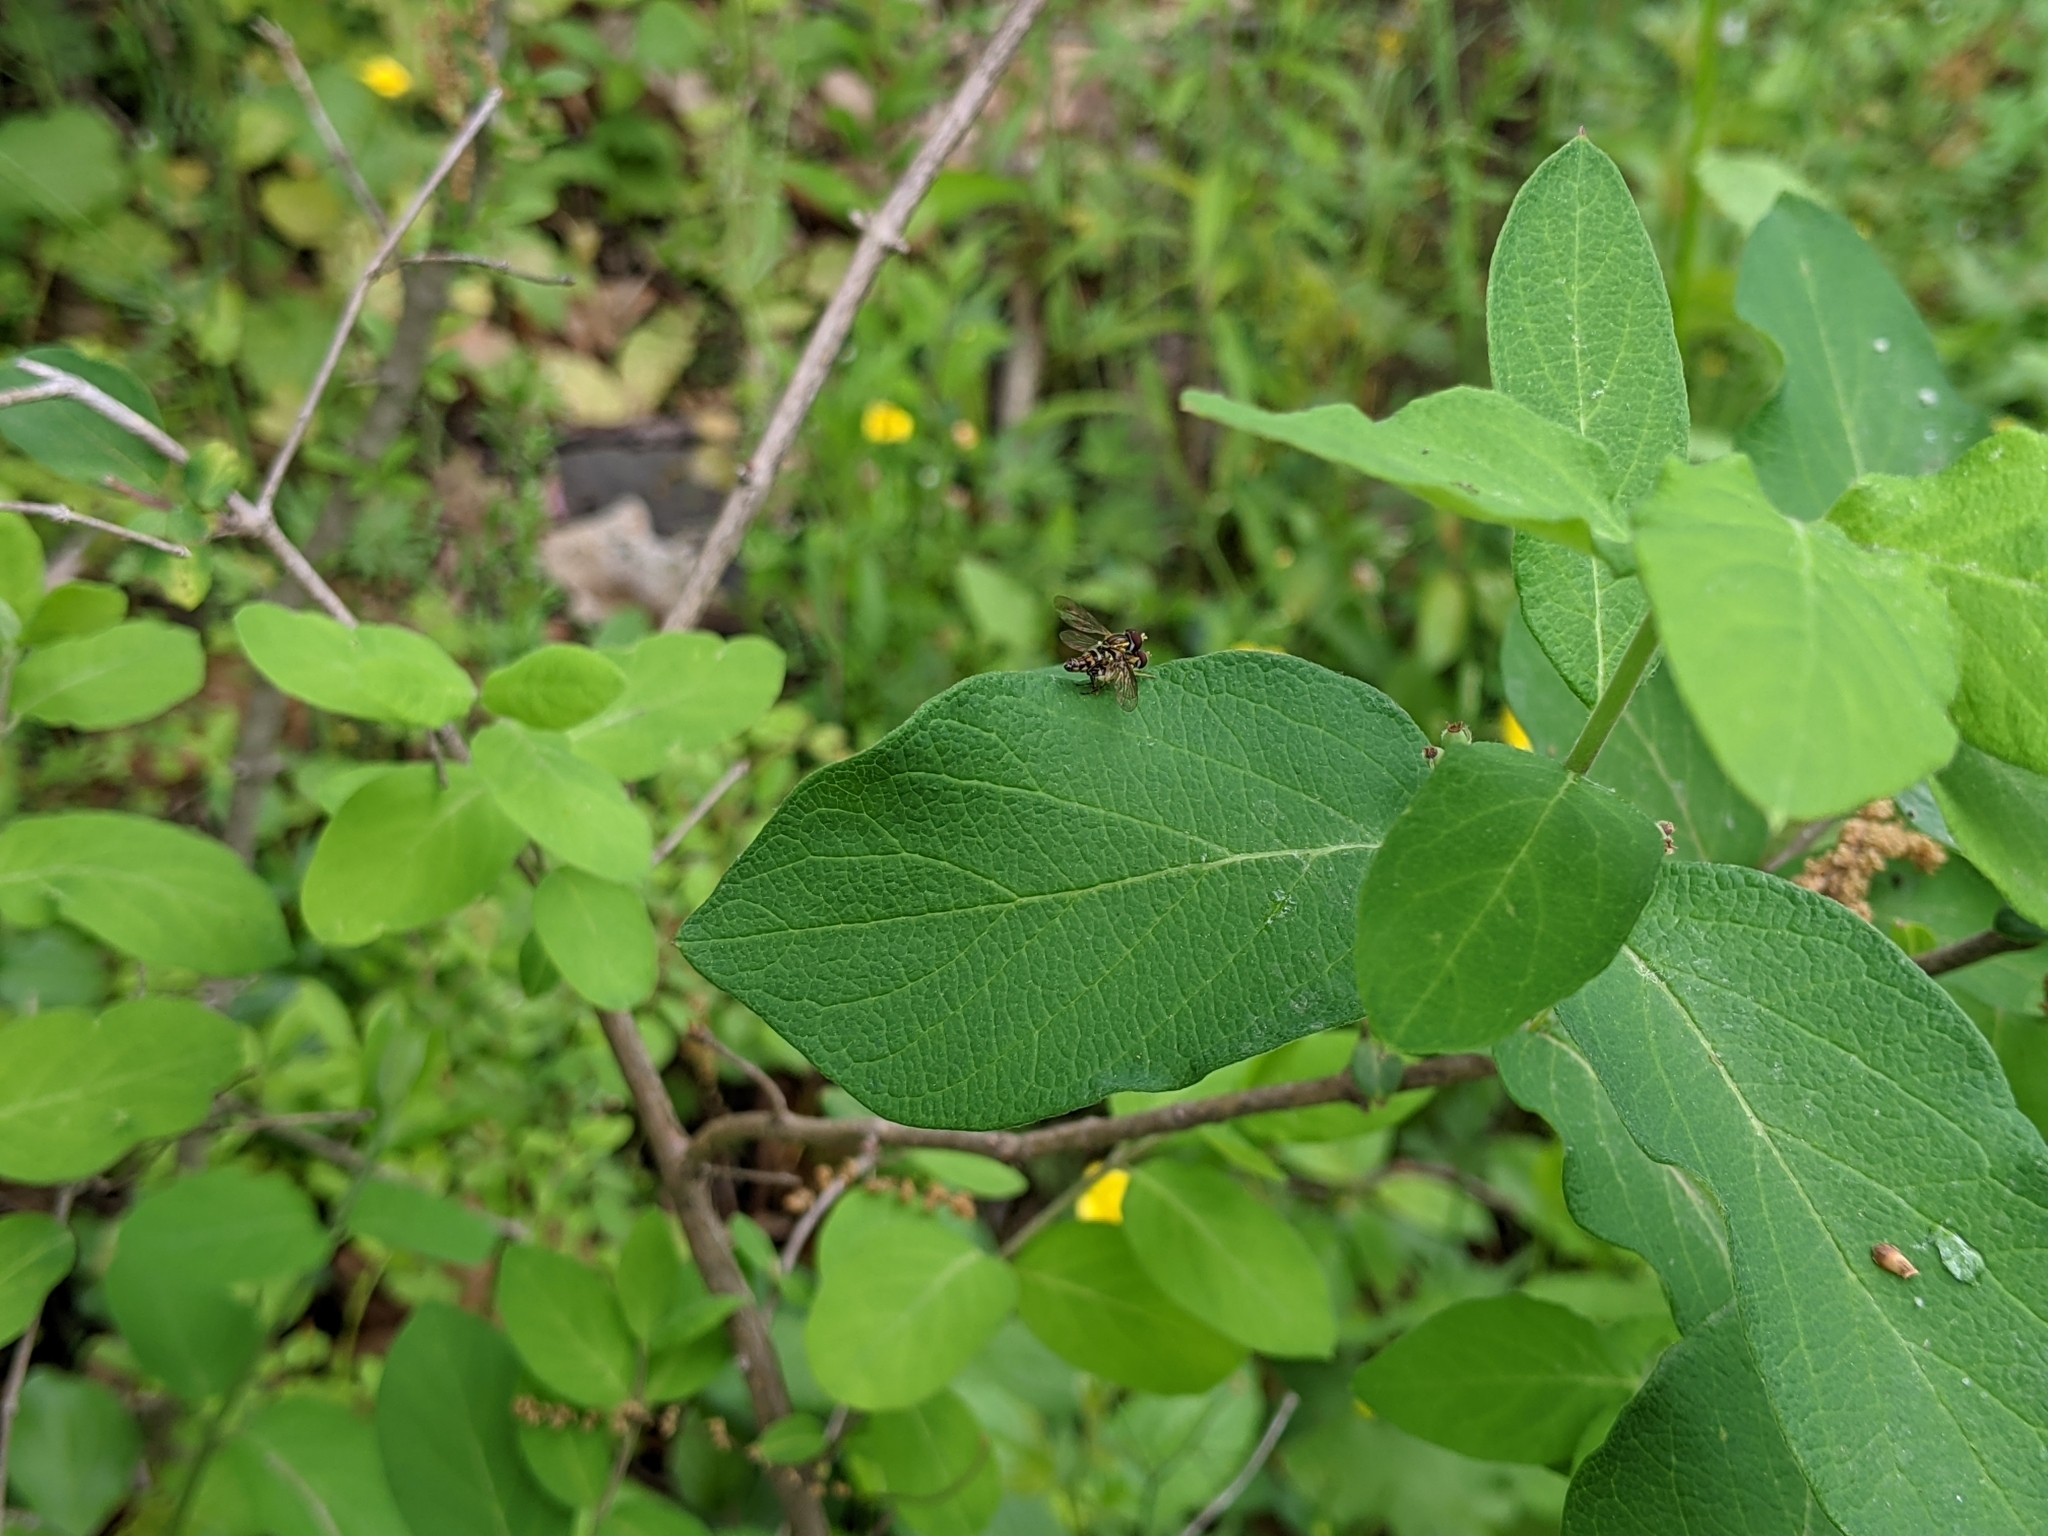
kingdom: Animalia
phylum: Arthropoda
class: Insecta
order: Diptera
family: Syrphidae
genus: Toxomerus
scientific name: Toxomerus geminatus
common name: Eastern calligrapher
